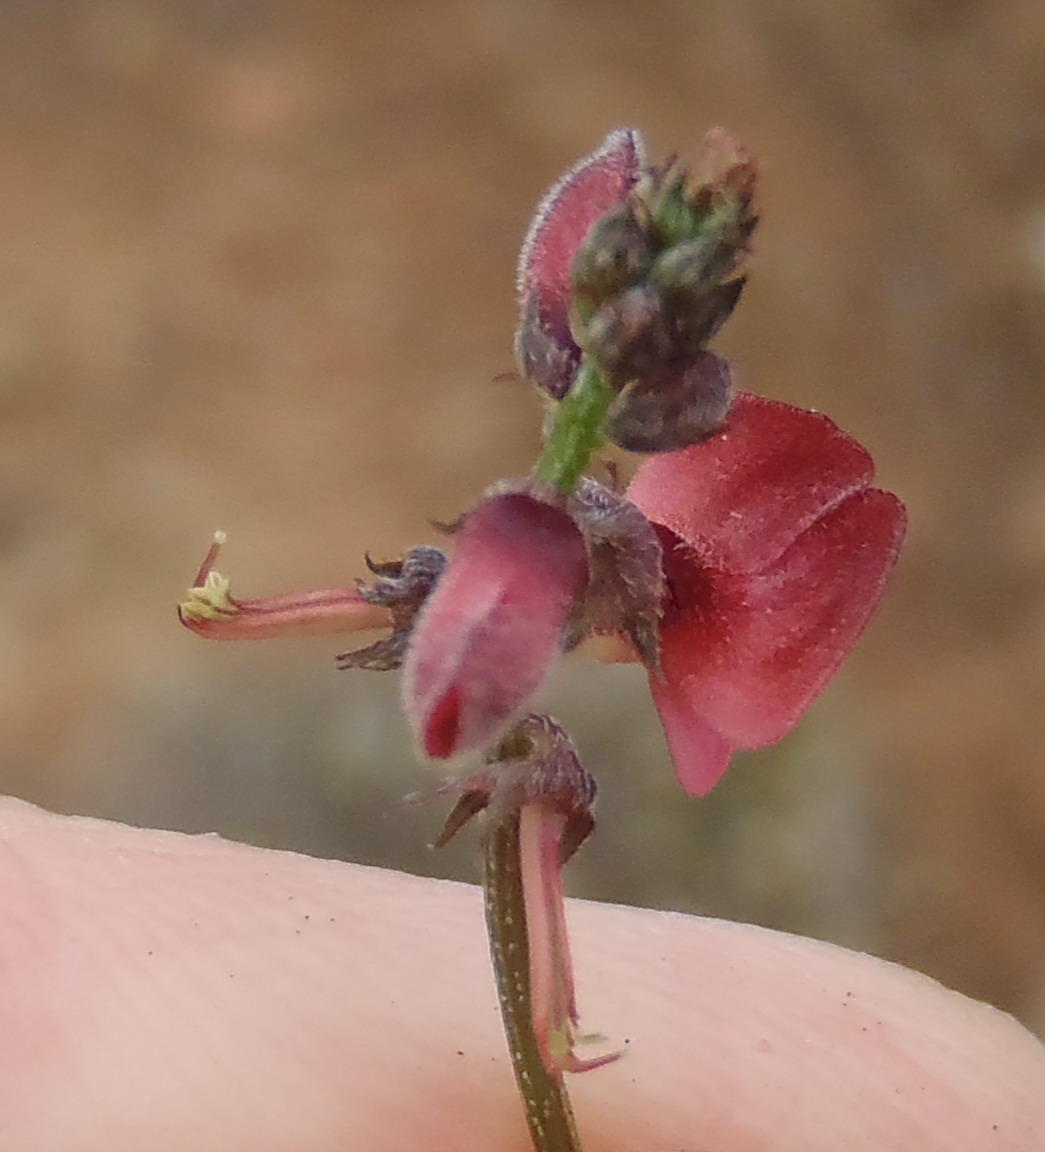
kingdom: Plantae
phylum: Tracheophyta
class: Magnoliopsida
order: Fabales
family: Fabaceae
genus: Indigofera
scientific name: Indigofera heterophylla
